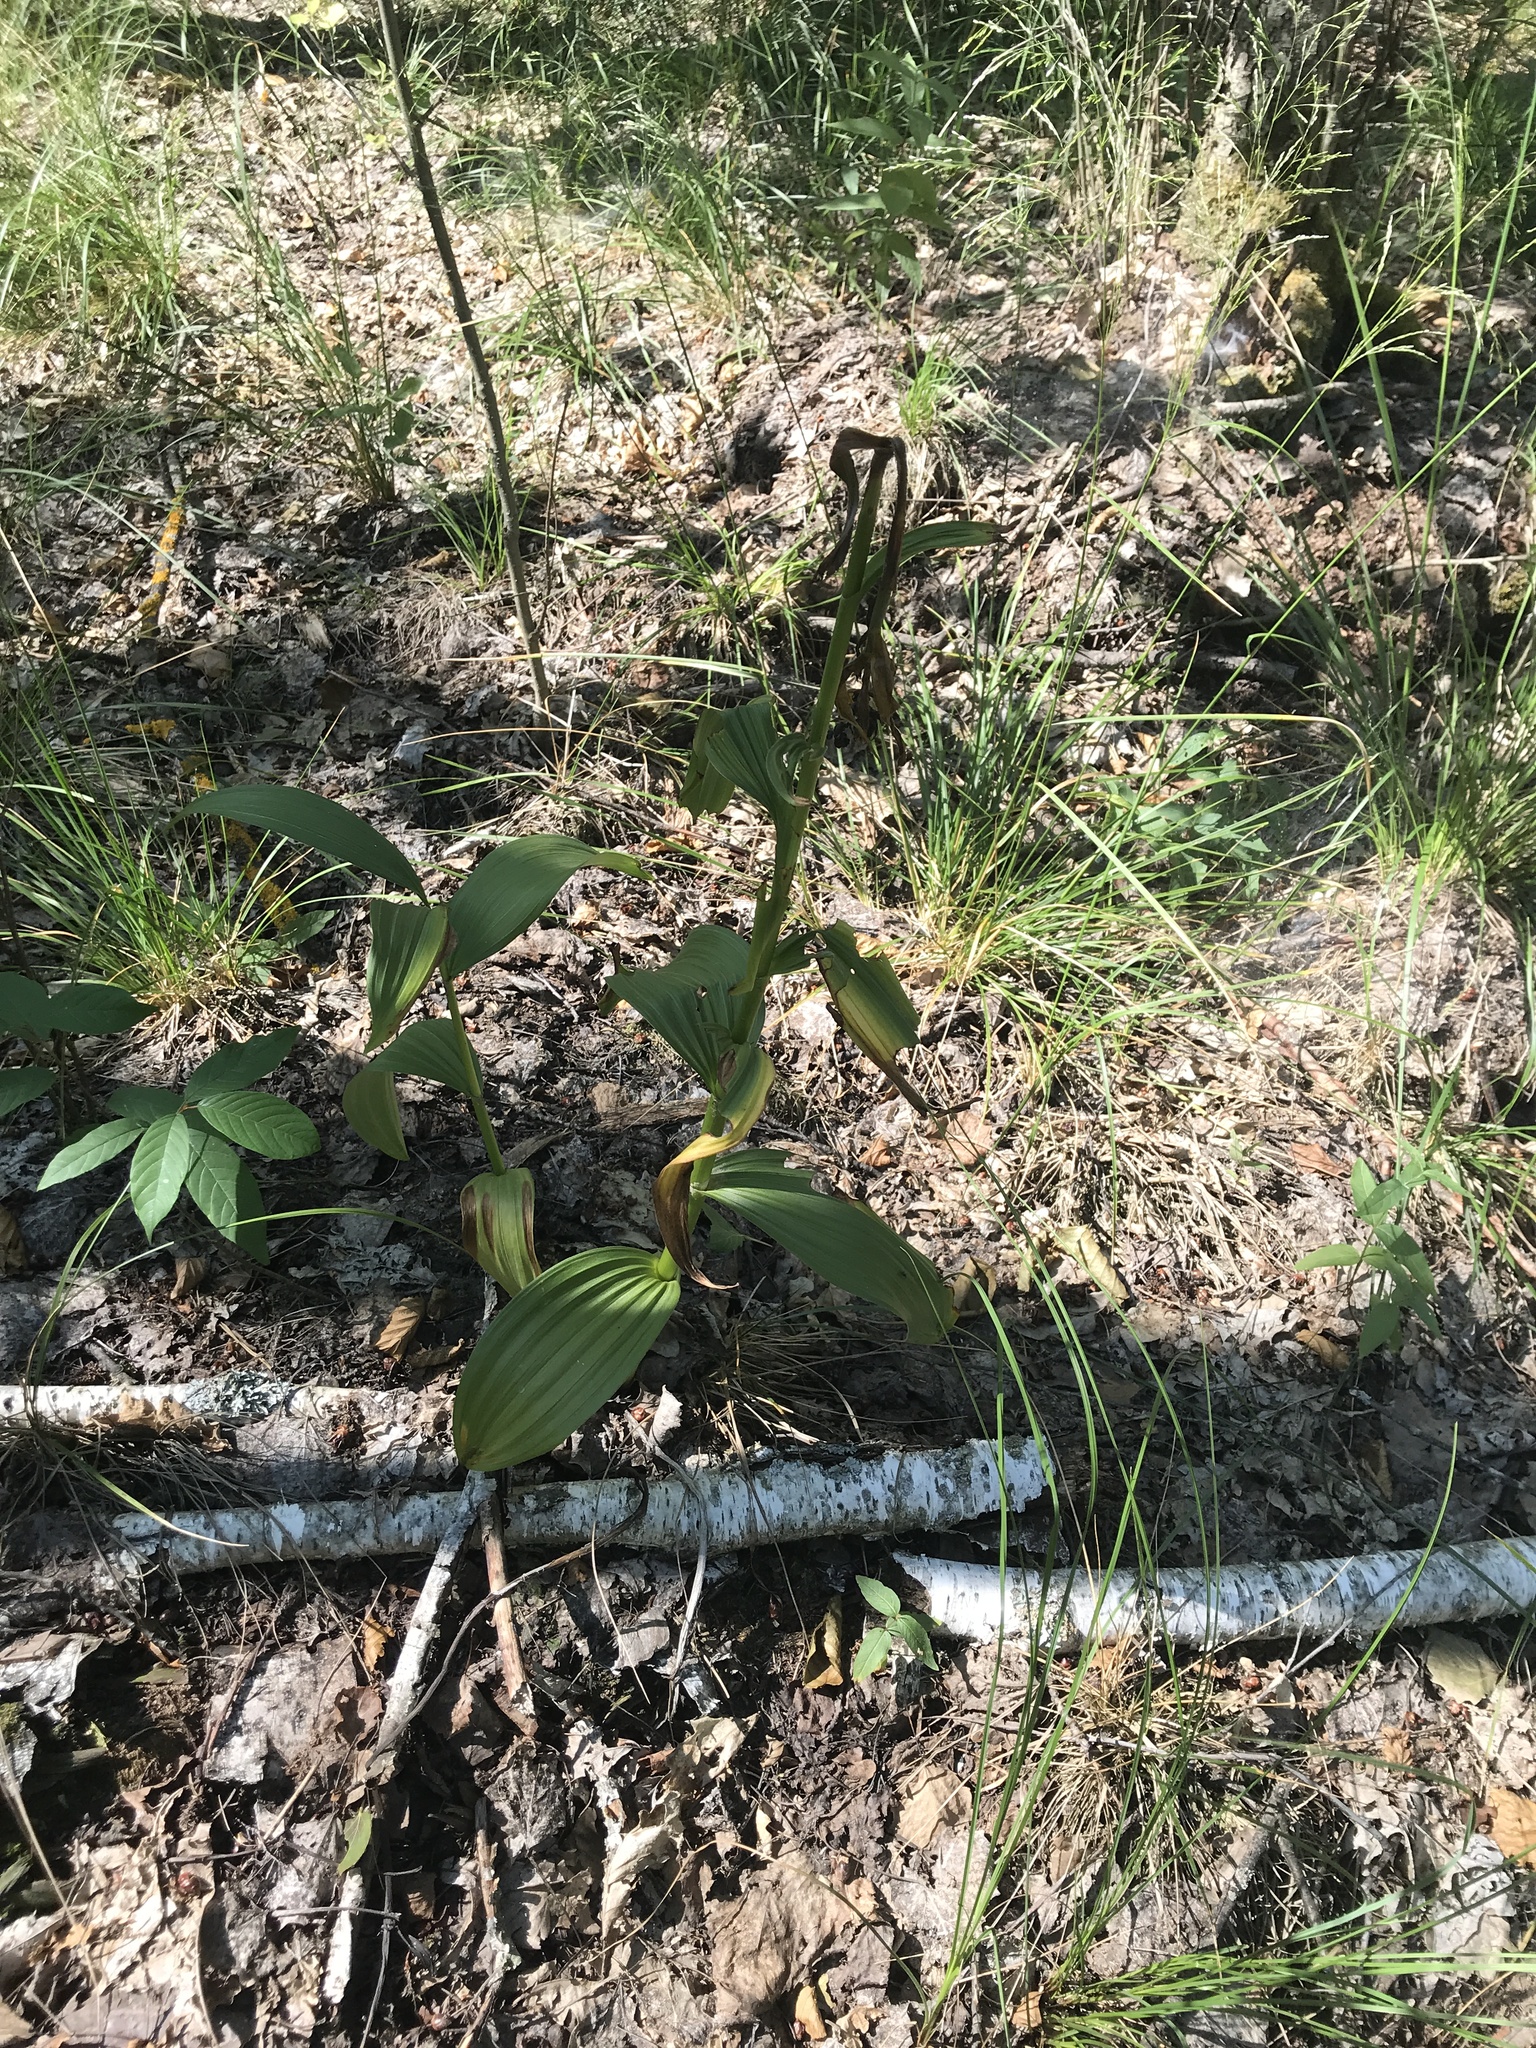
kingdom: Plantae
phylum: Tracheophyta
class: Liliopsida
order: Liliales
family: Melanthiaceae
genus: Veratrum
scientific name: Veratrum lobelianum
